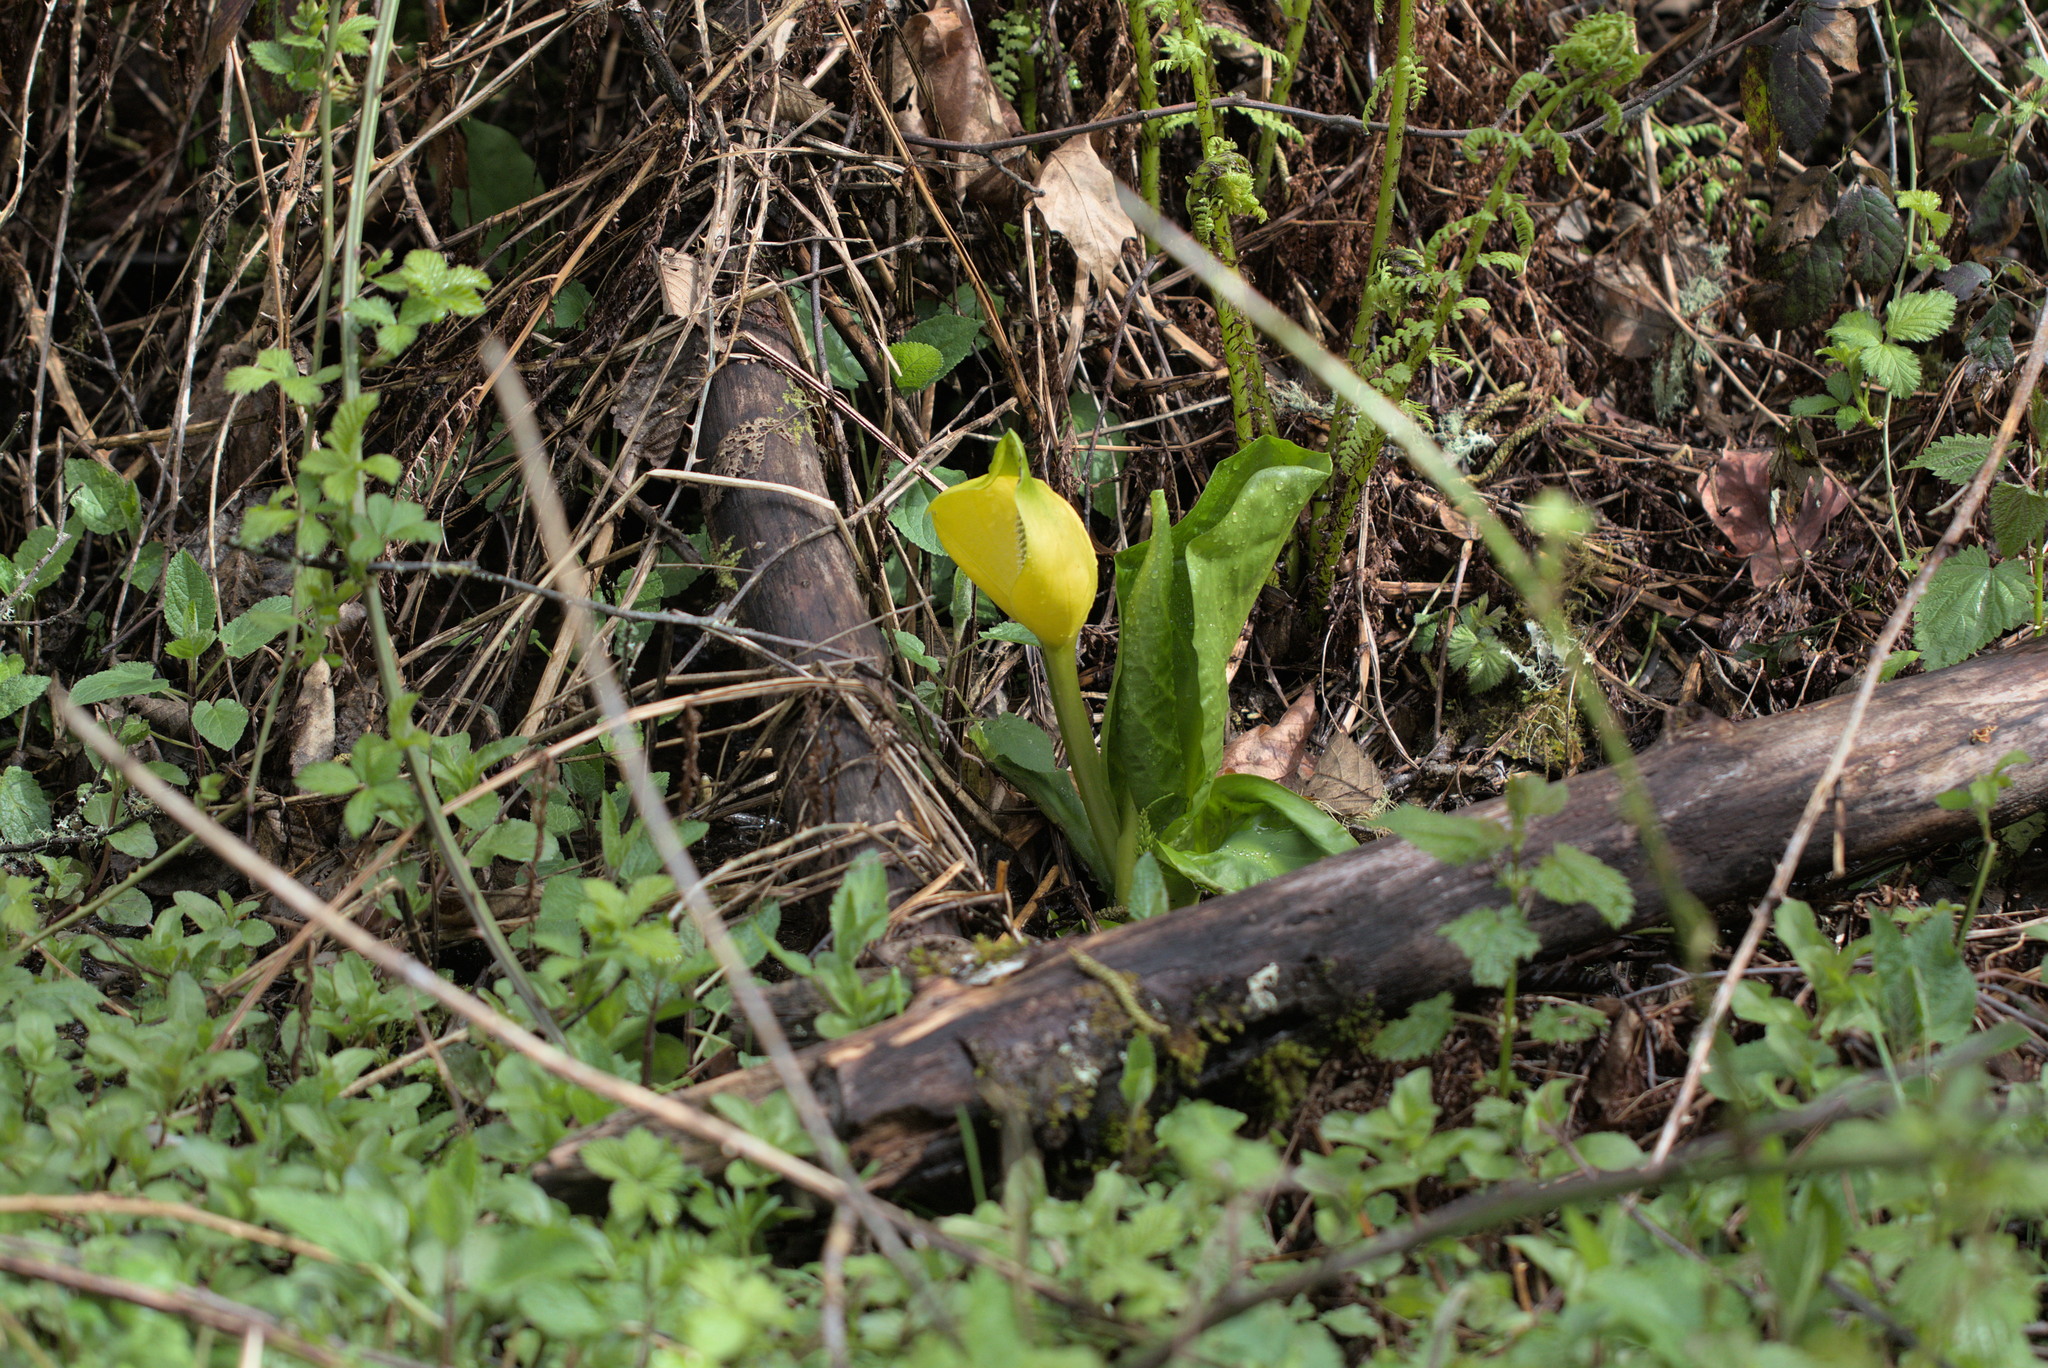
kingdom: Plantae
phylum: Tracheophyta
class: Liliopsida
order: Alismatales
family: Araceae
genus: Lysichiton
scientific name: Lysichiton americanus
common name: American skunk cabbage
